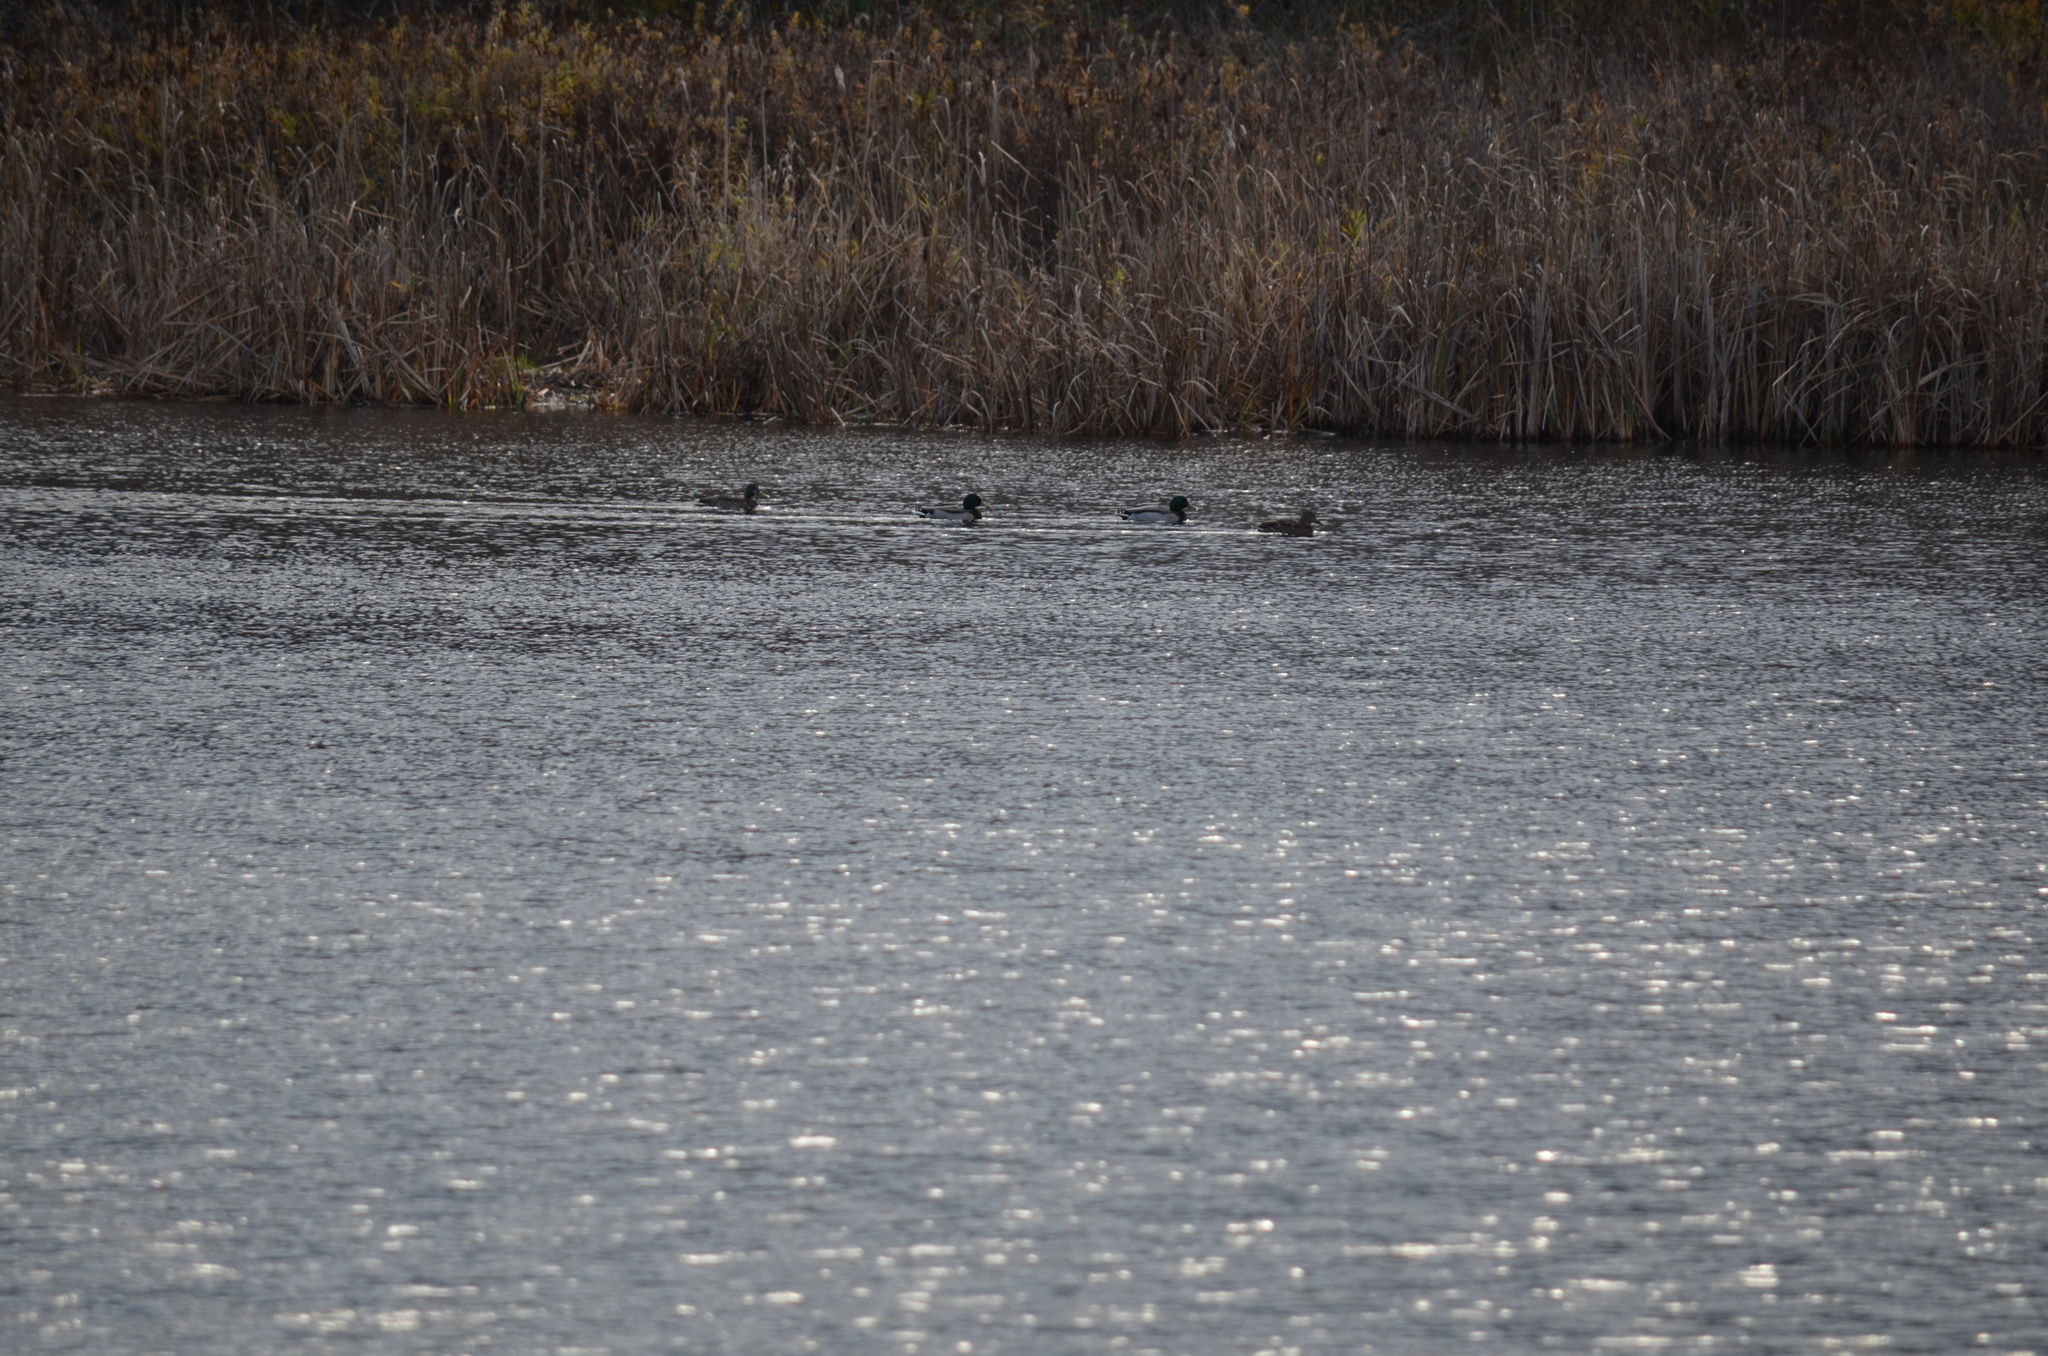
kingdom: Animalia
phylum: Chordata
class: Aves
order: Anseriformes
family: Anatidae
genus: Anas
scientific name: Anas platyrhynchos
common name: Mallard
